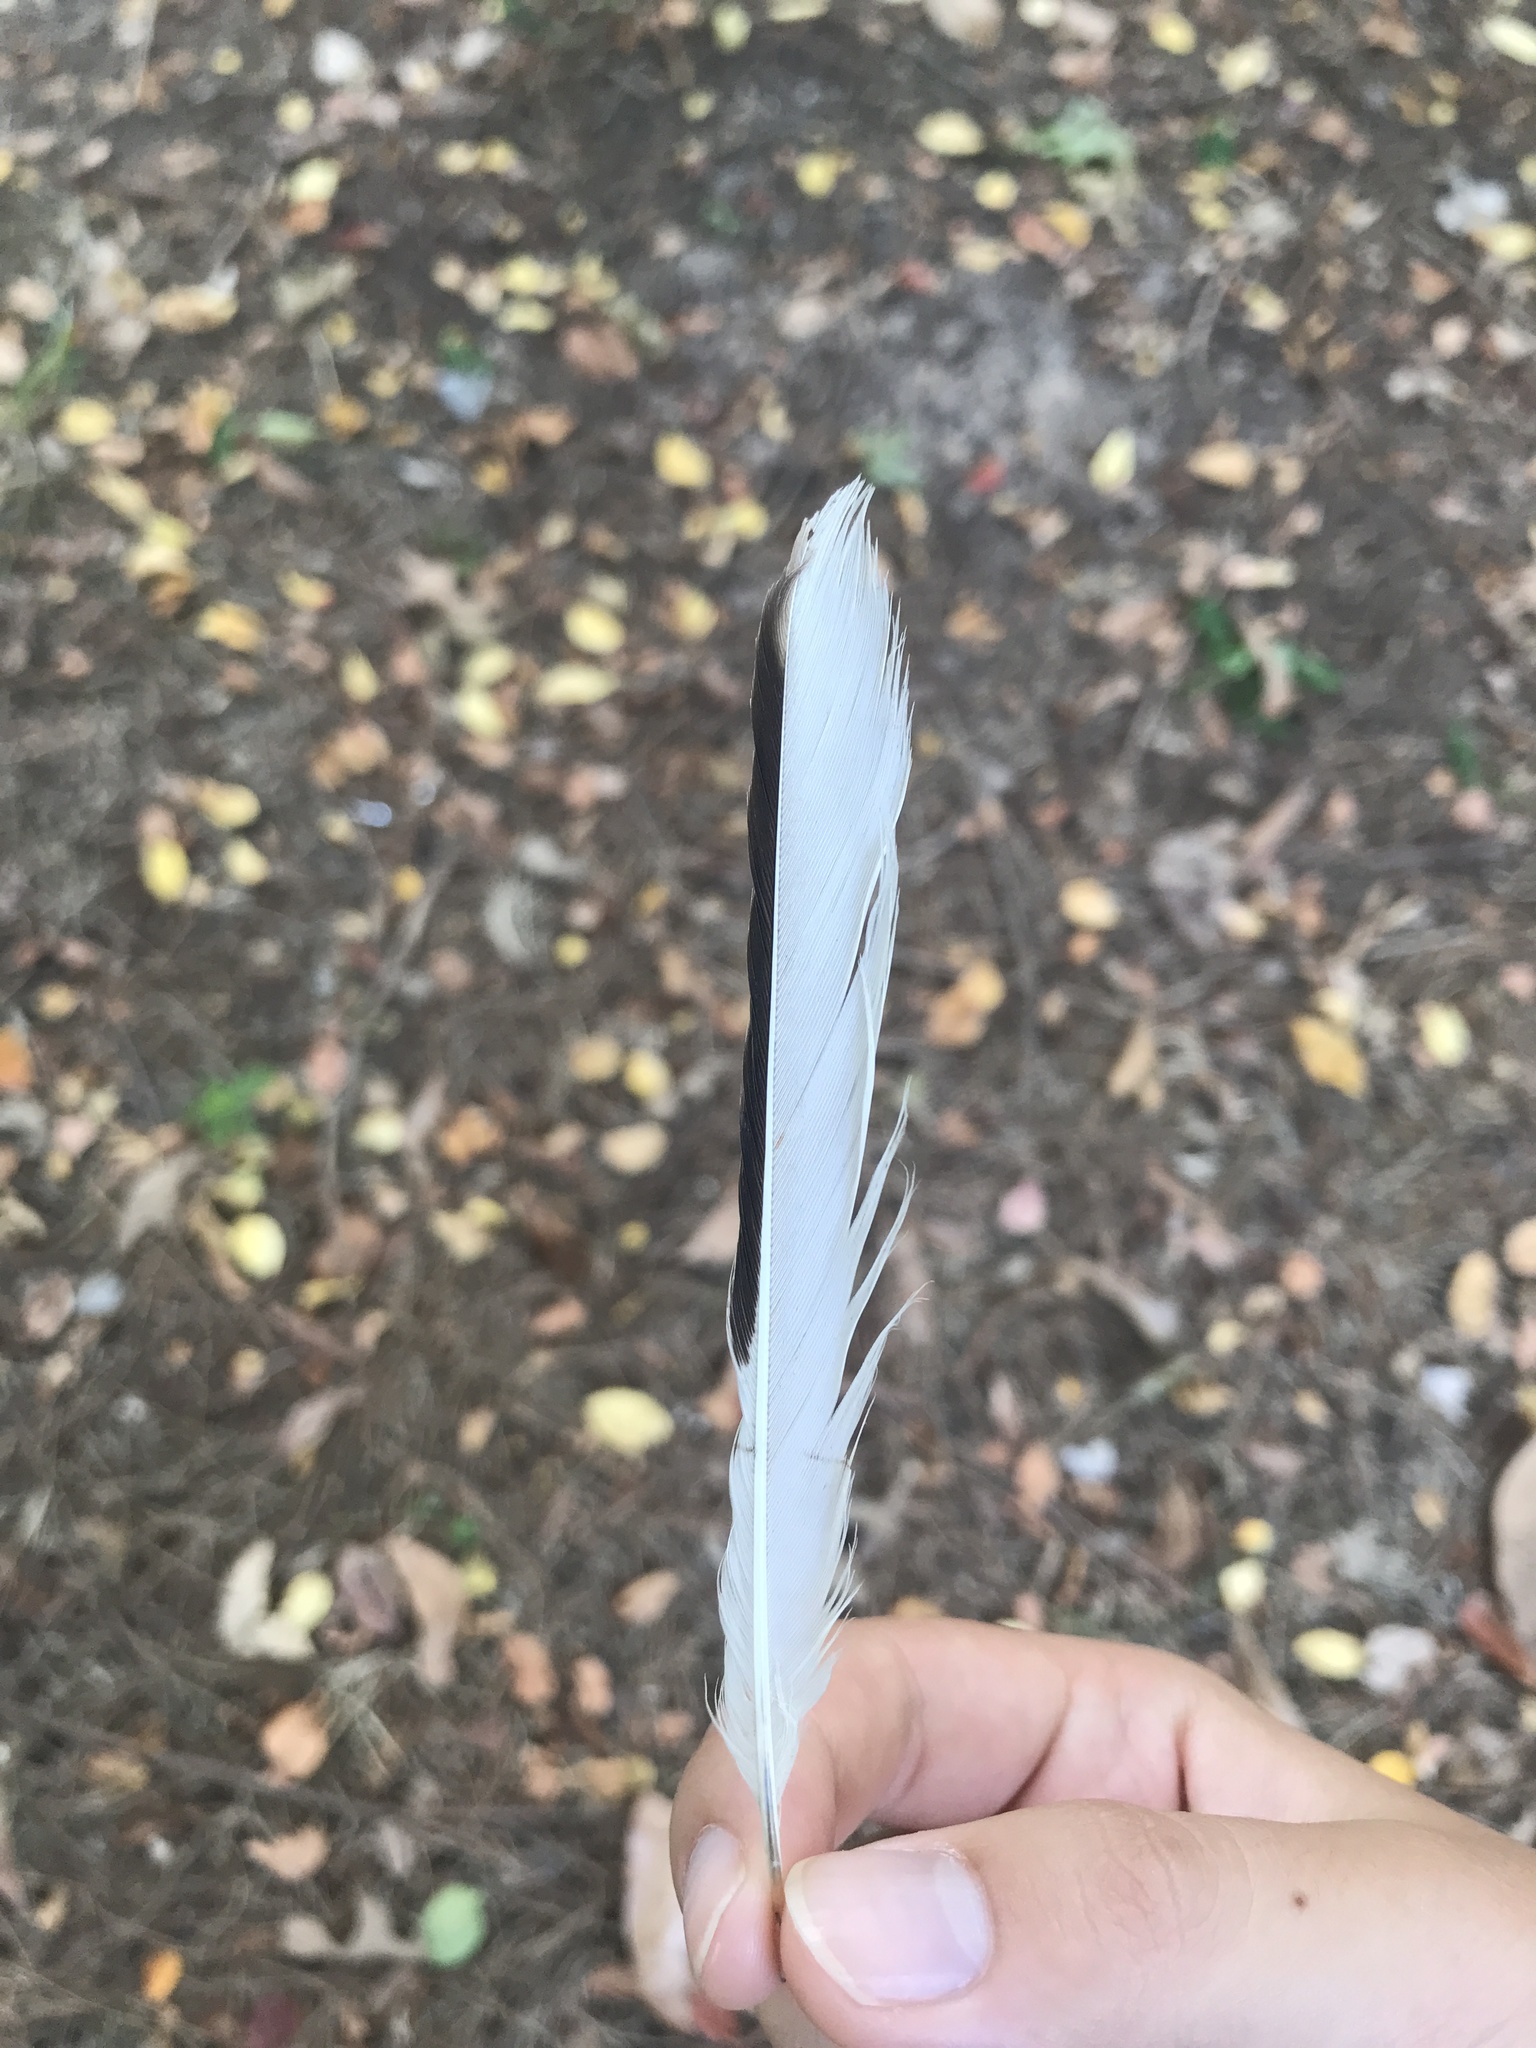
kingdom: Animalia
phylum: Chordata
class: Aves
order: Passeriformes
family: Mimidae
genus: Mimus
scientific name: Mimus polyglottos
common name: Northern mockingbird
